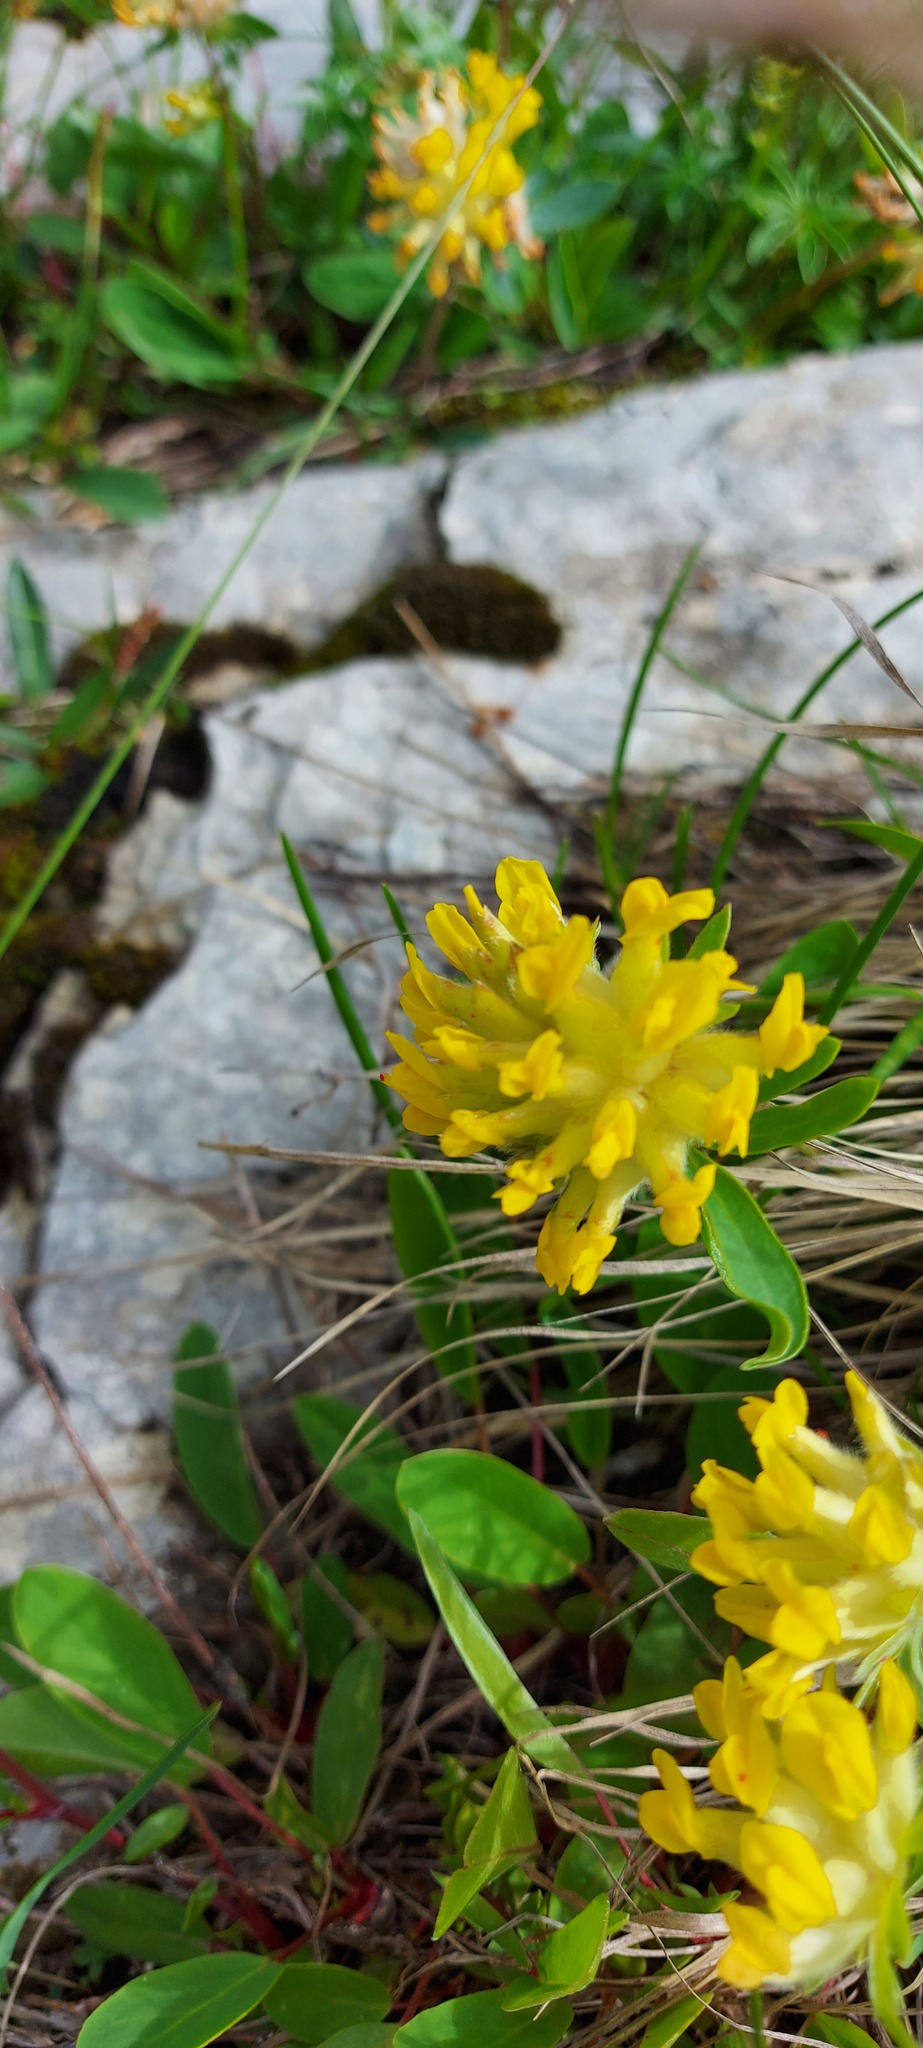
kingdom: Plantae
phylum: Tracheophyta
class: Magnoliopsida
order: Fabales
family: Fabaceae
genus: Anthyllis
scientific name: Anthyllis vulneraria
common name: Kidney vetch
